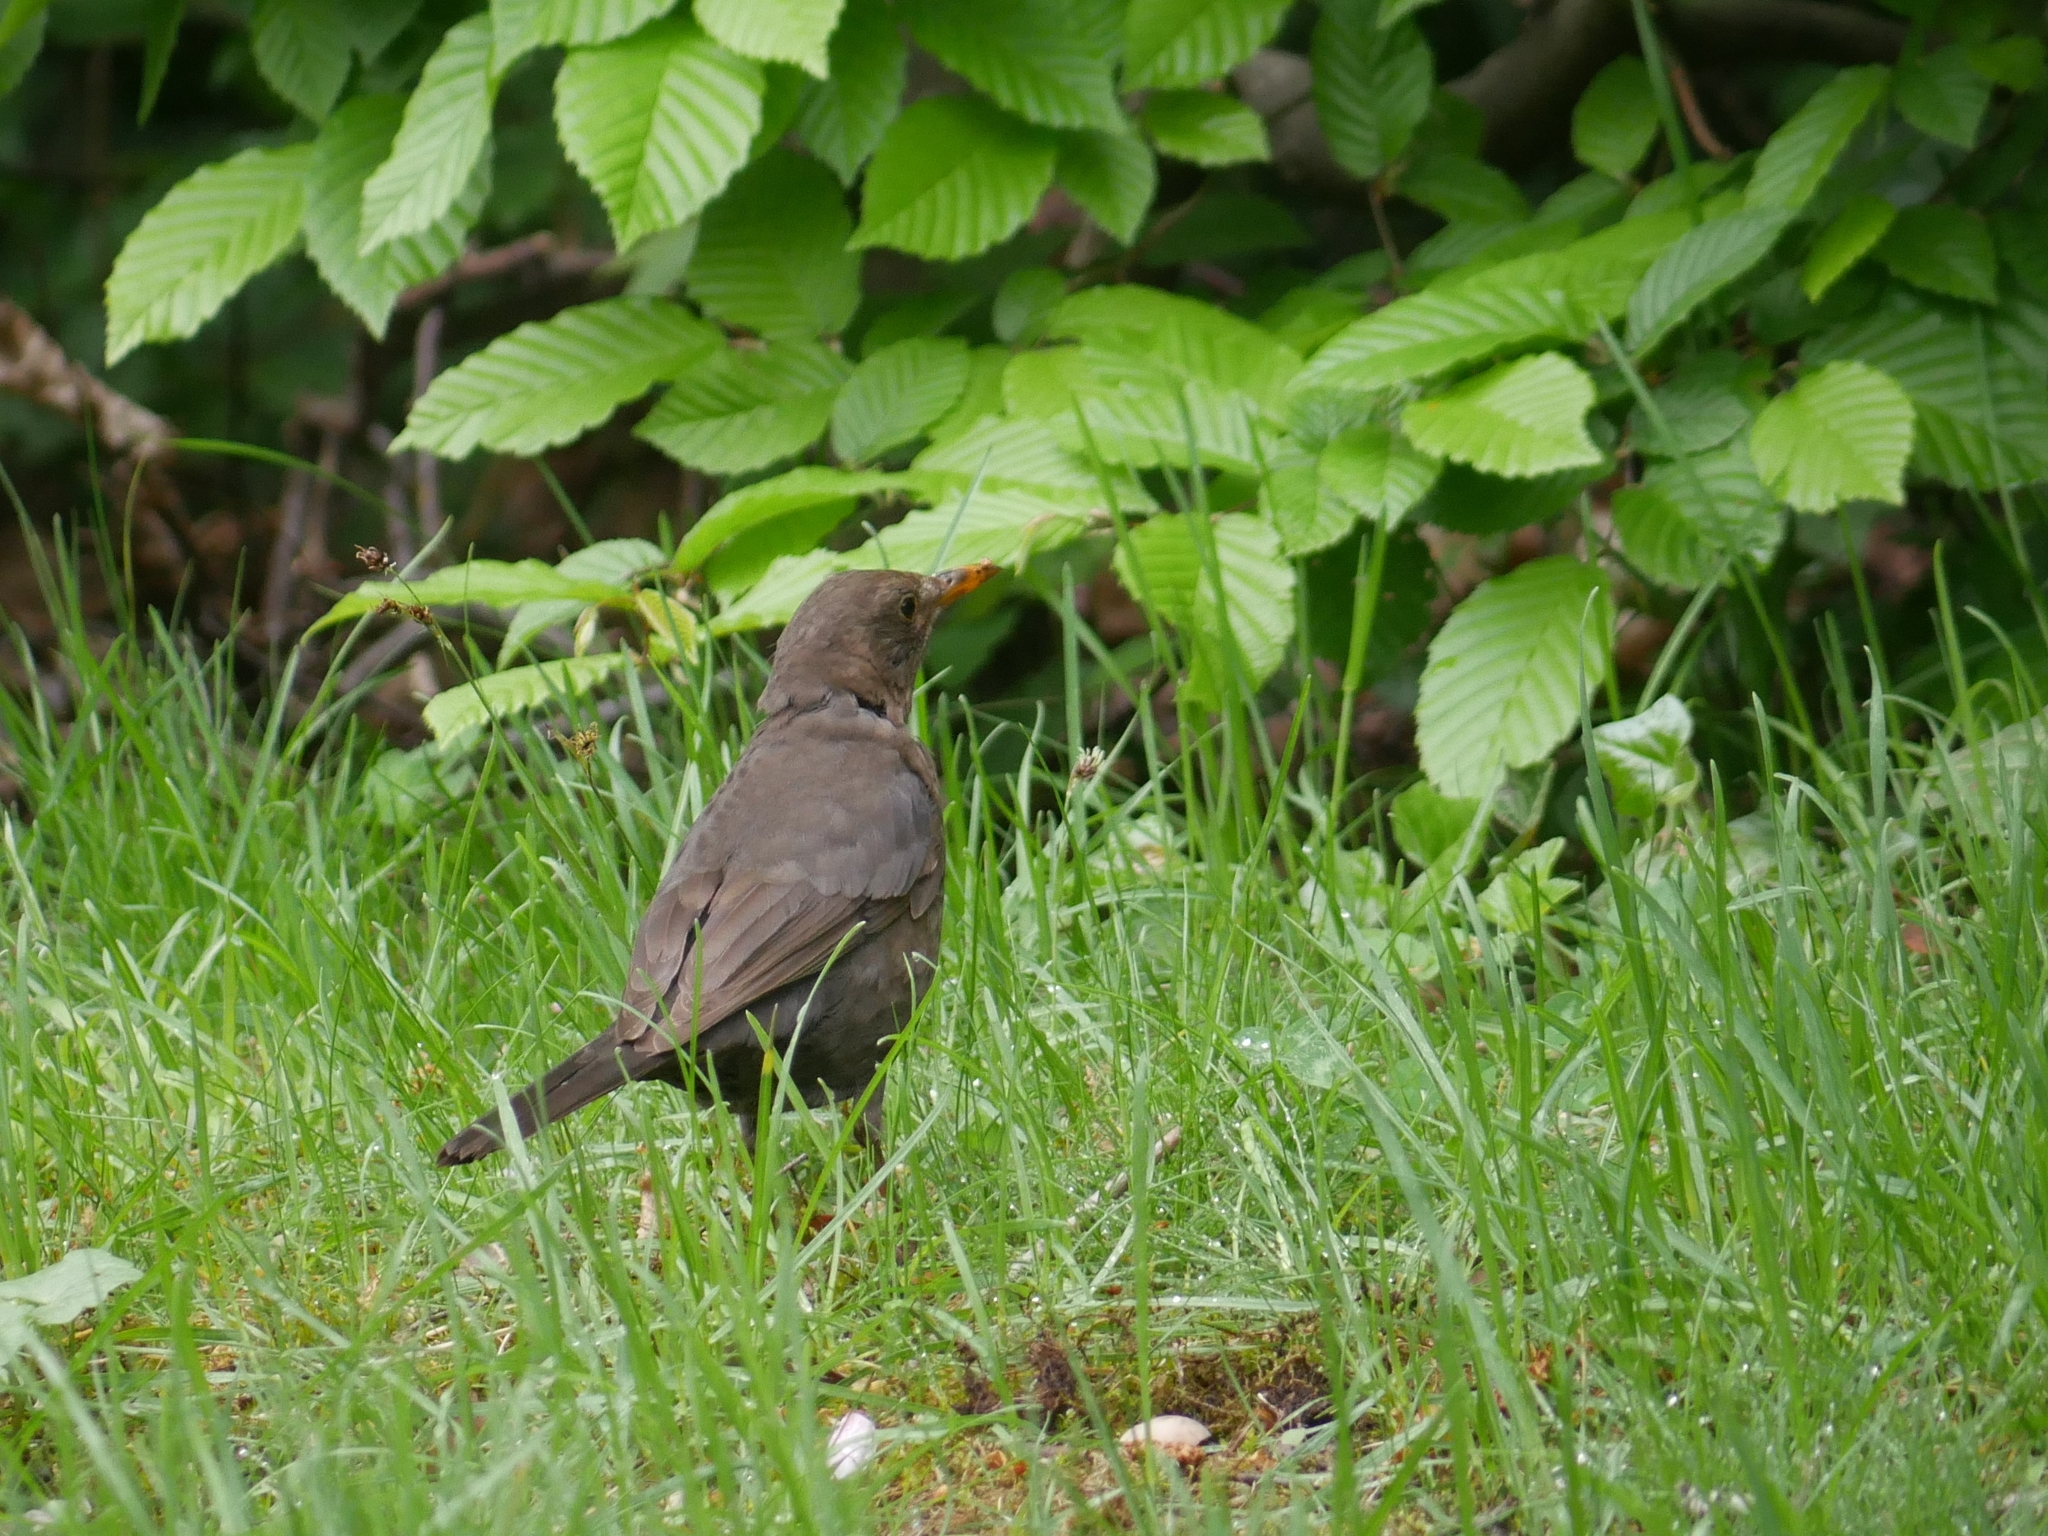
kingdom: Animalia
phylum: Chordata
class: Aves
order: Passeriformes
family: Turdidae
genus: Turdus
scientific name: Turdus merula
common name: Common blackbird
